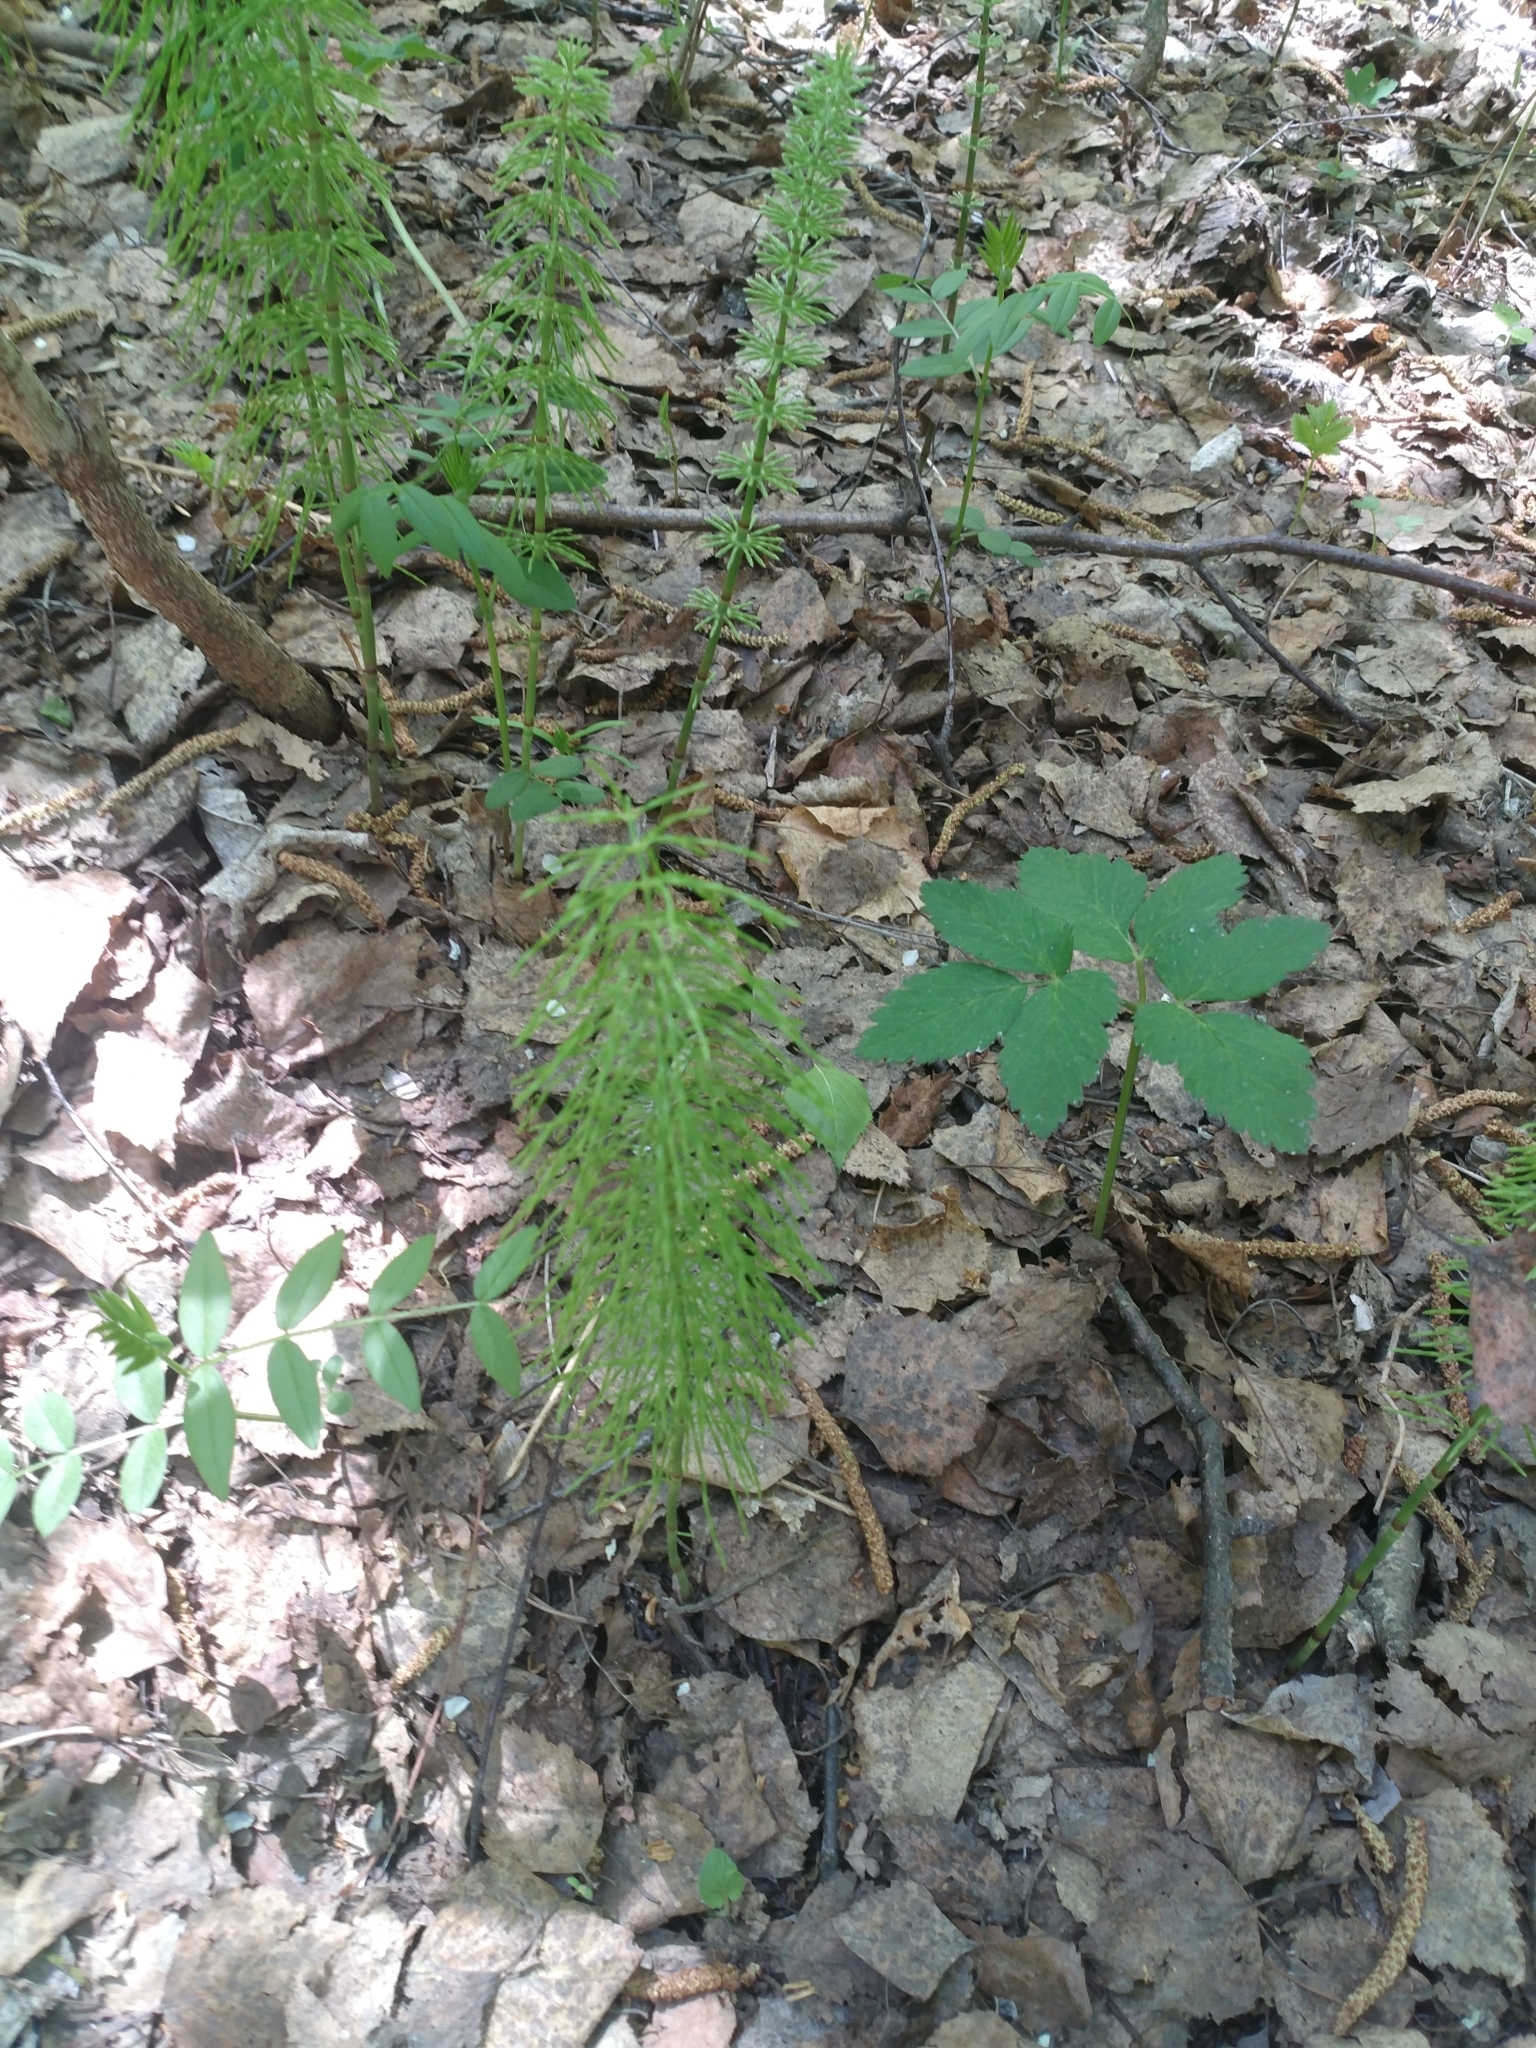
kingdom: Plantae
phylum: Tracheophyta
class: Polypodiopsida
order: Equisetales
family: Equisetaceae
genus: Equisetum
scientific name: Equisetum sylvaticum
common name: Wood horsetail
